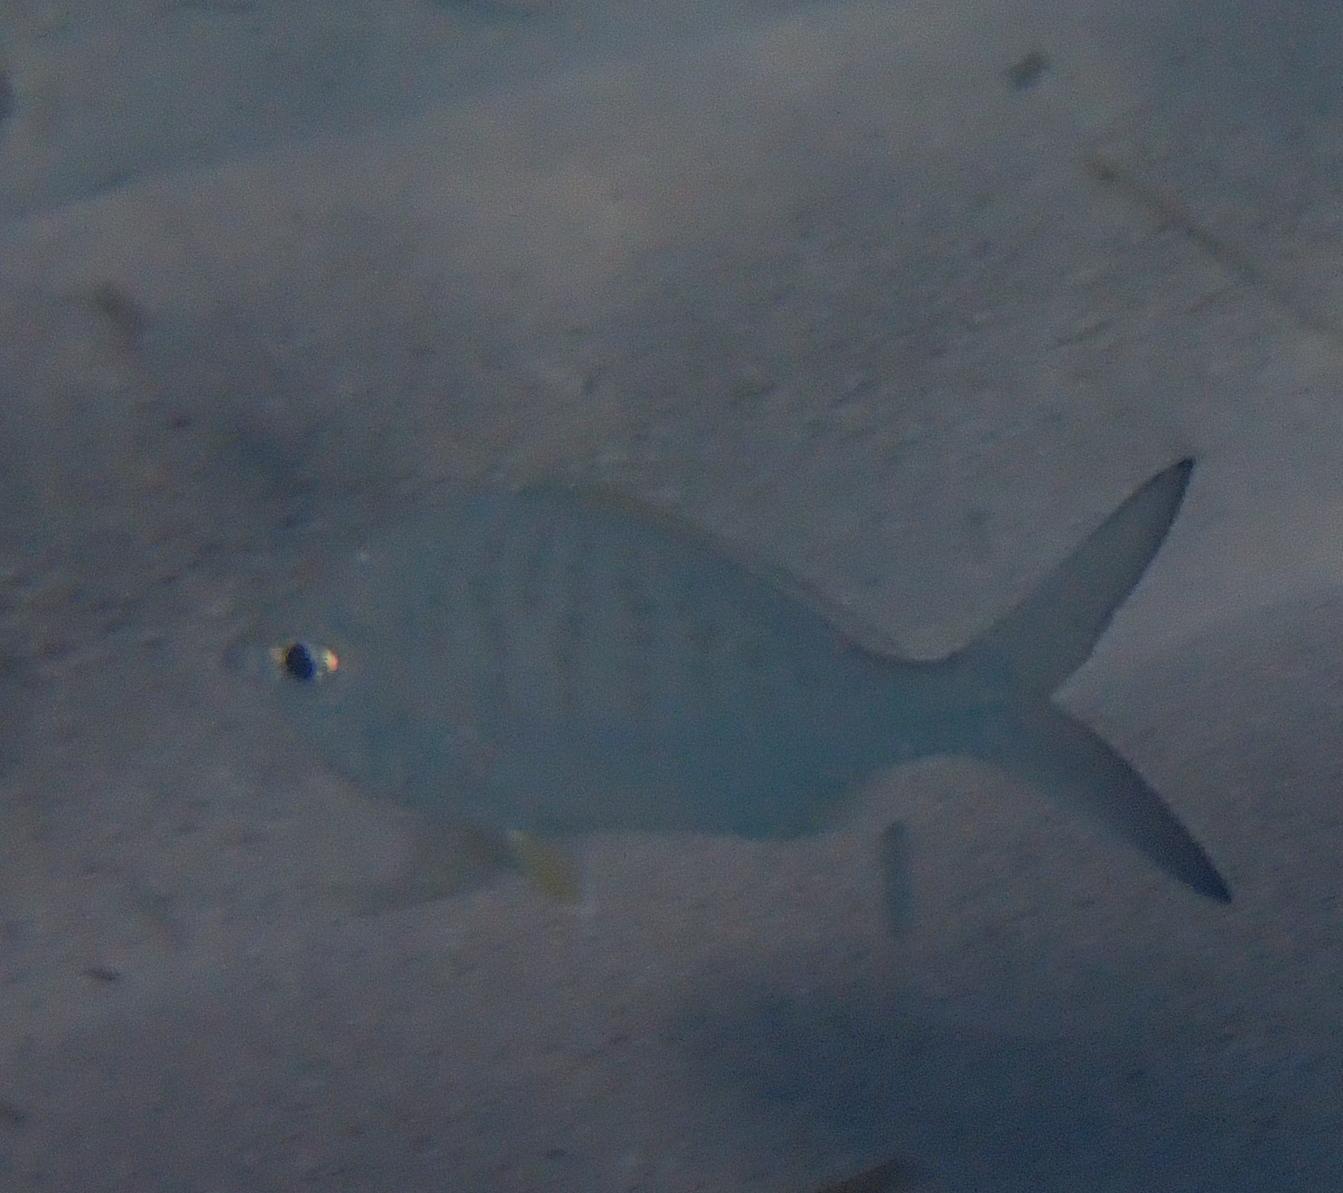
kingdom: Animalia
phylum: Chordata
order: Perciformes
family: Gerreidae
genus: Gerres
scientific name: Gerres cinereus
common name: Hedow
